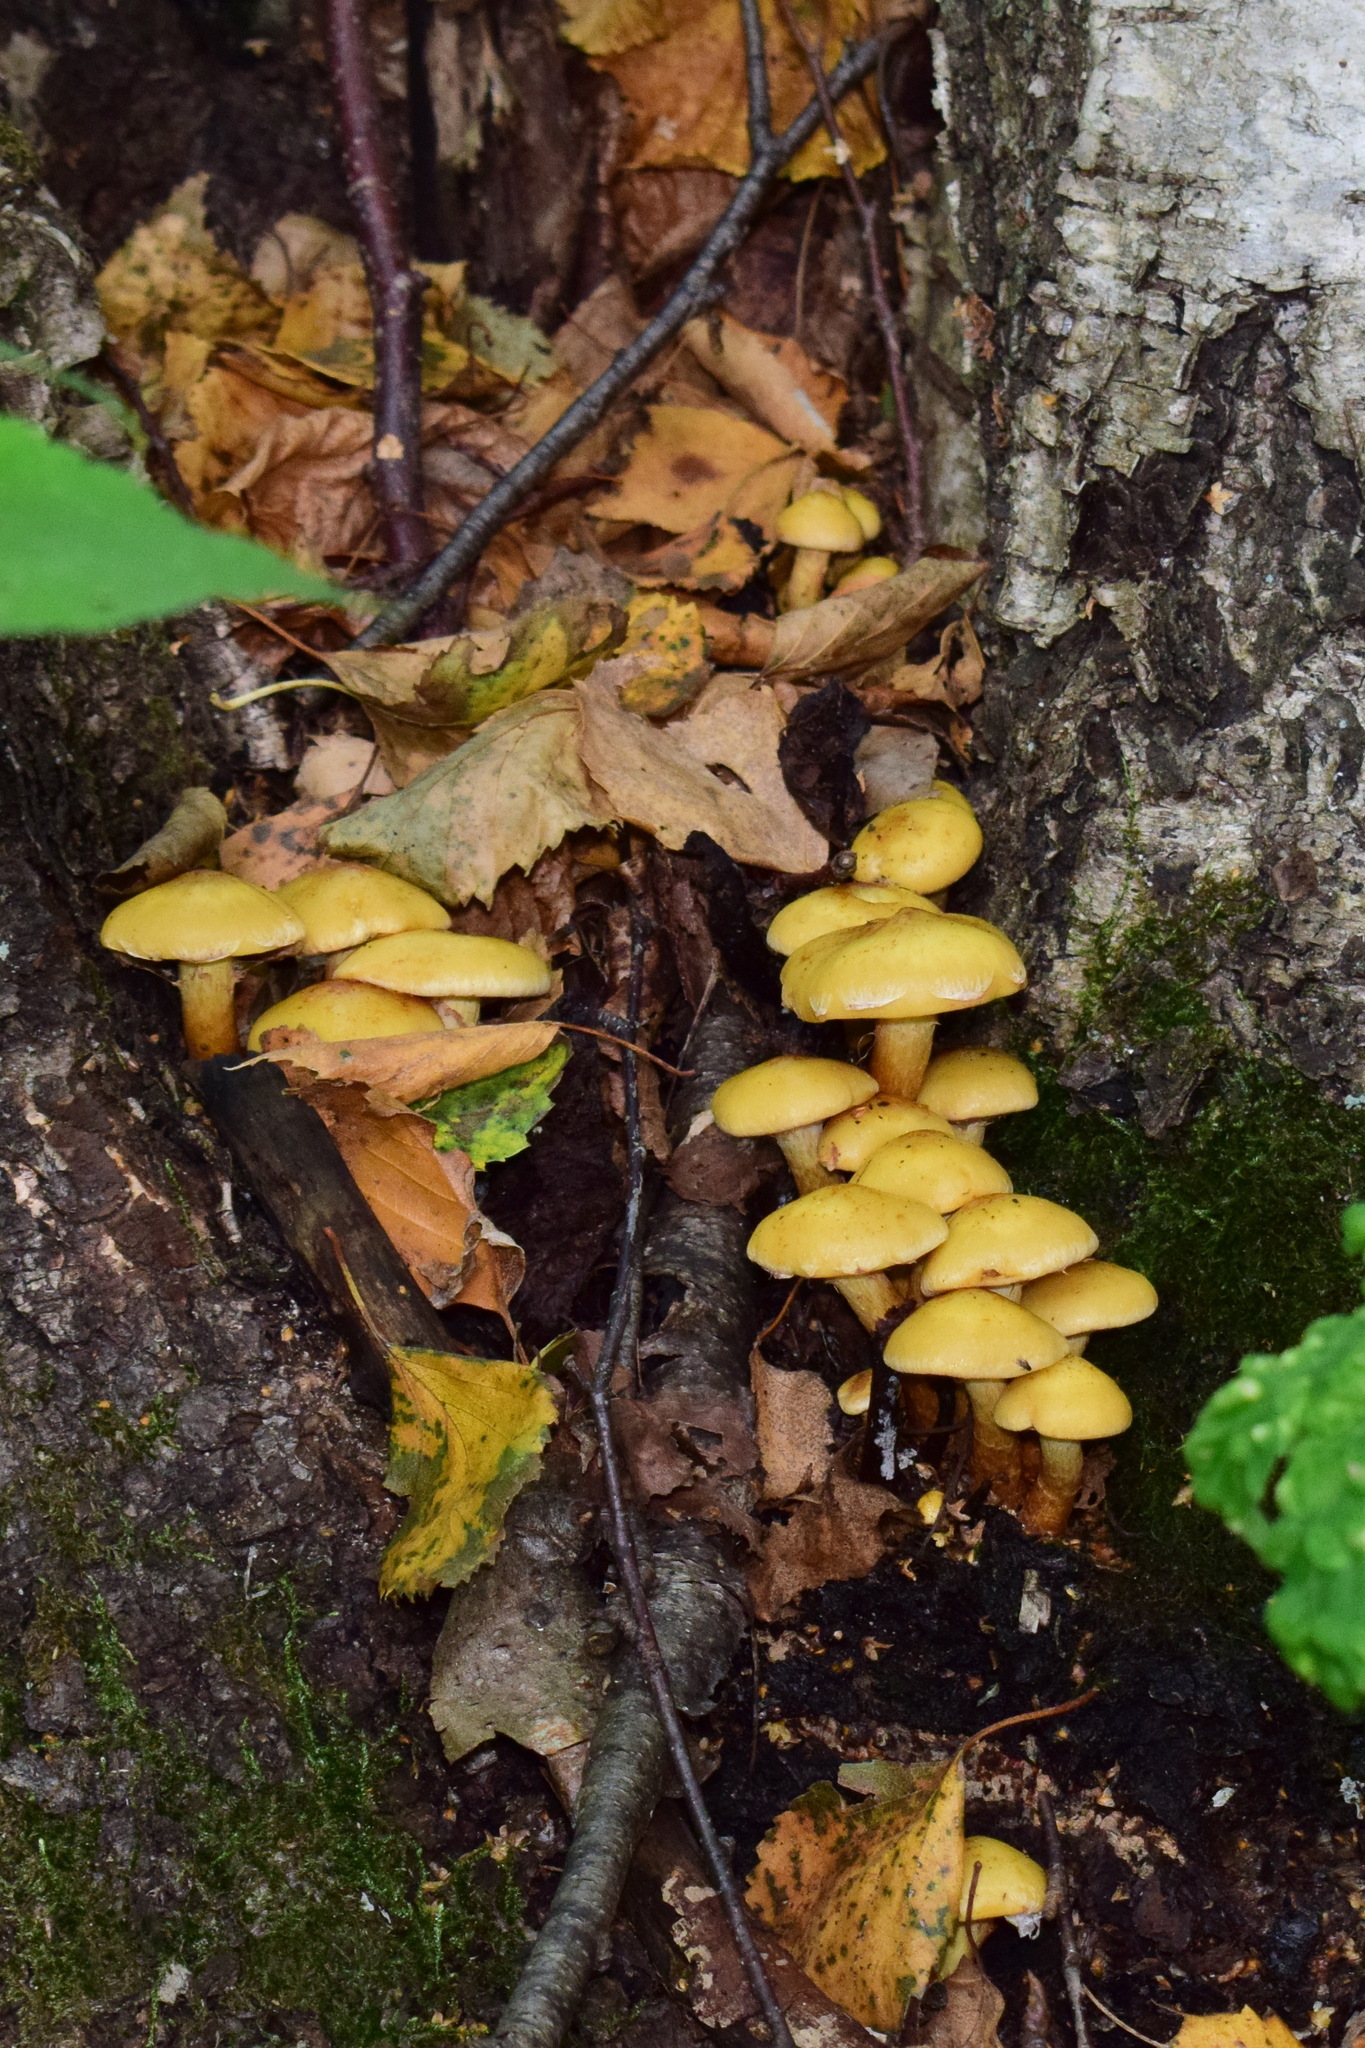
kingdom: Fungi
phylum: Basidiomycota
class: Agaricomycetes
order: Agaricales
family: Hymenogastraceae
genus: Flammula
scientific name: Flammula alnicola
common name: Alder scalycap
